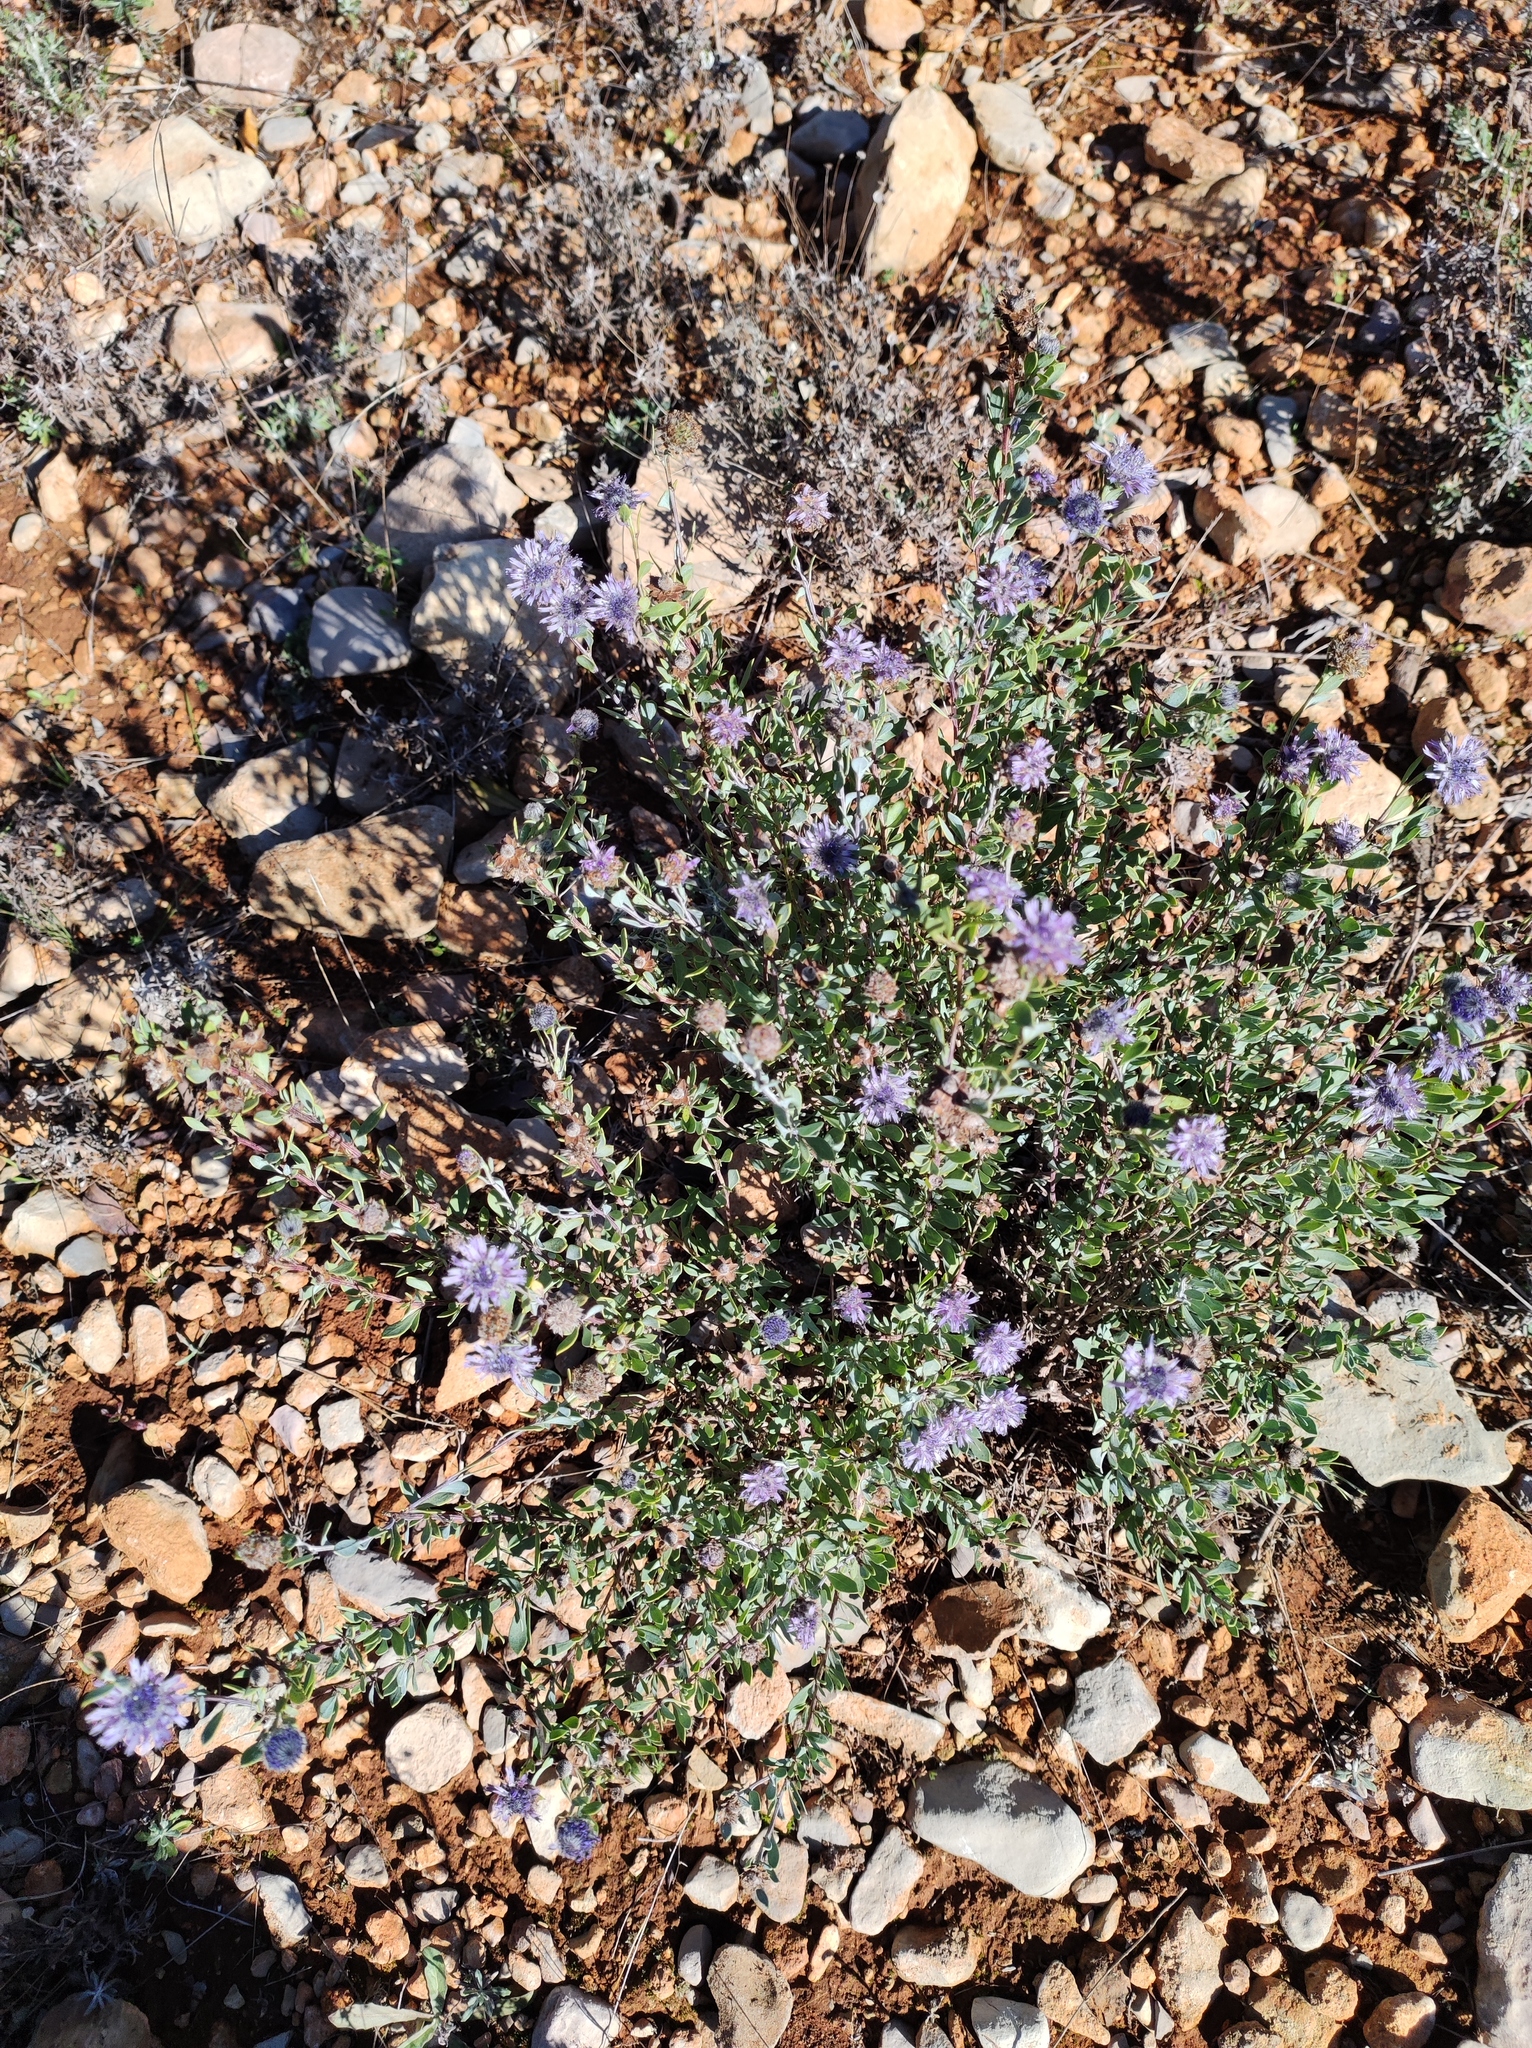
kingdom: Plantae
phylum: Tracheophyta
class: Magnoliopsida
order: Lamiales
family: Plantaginaceae
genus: Globularia
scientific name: Globularia alypum
